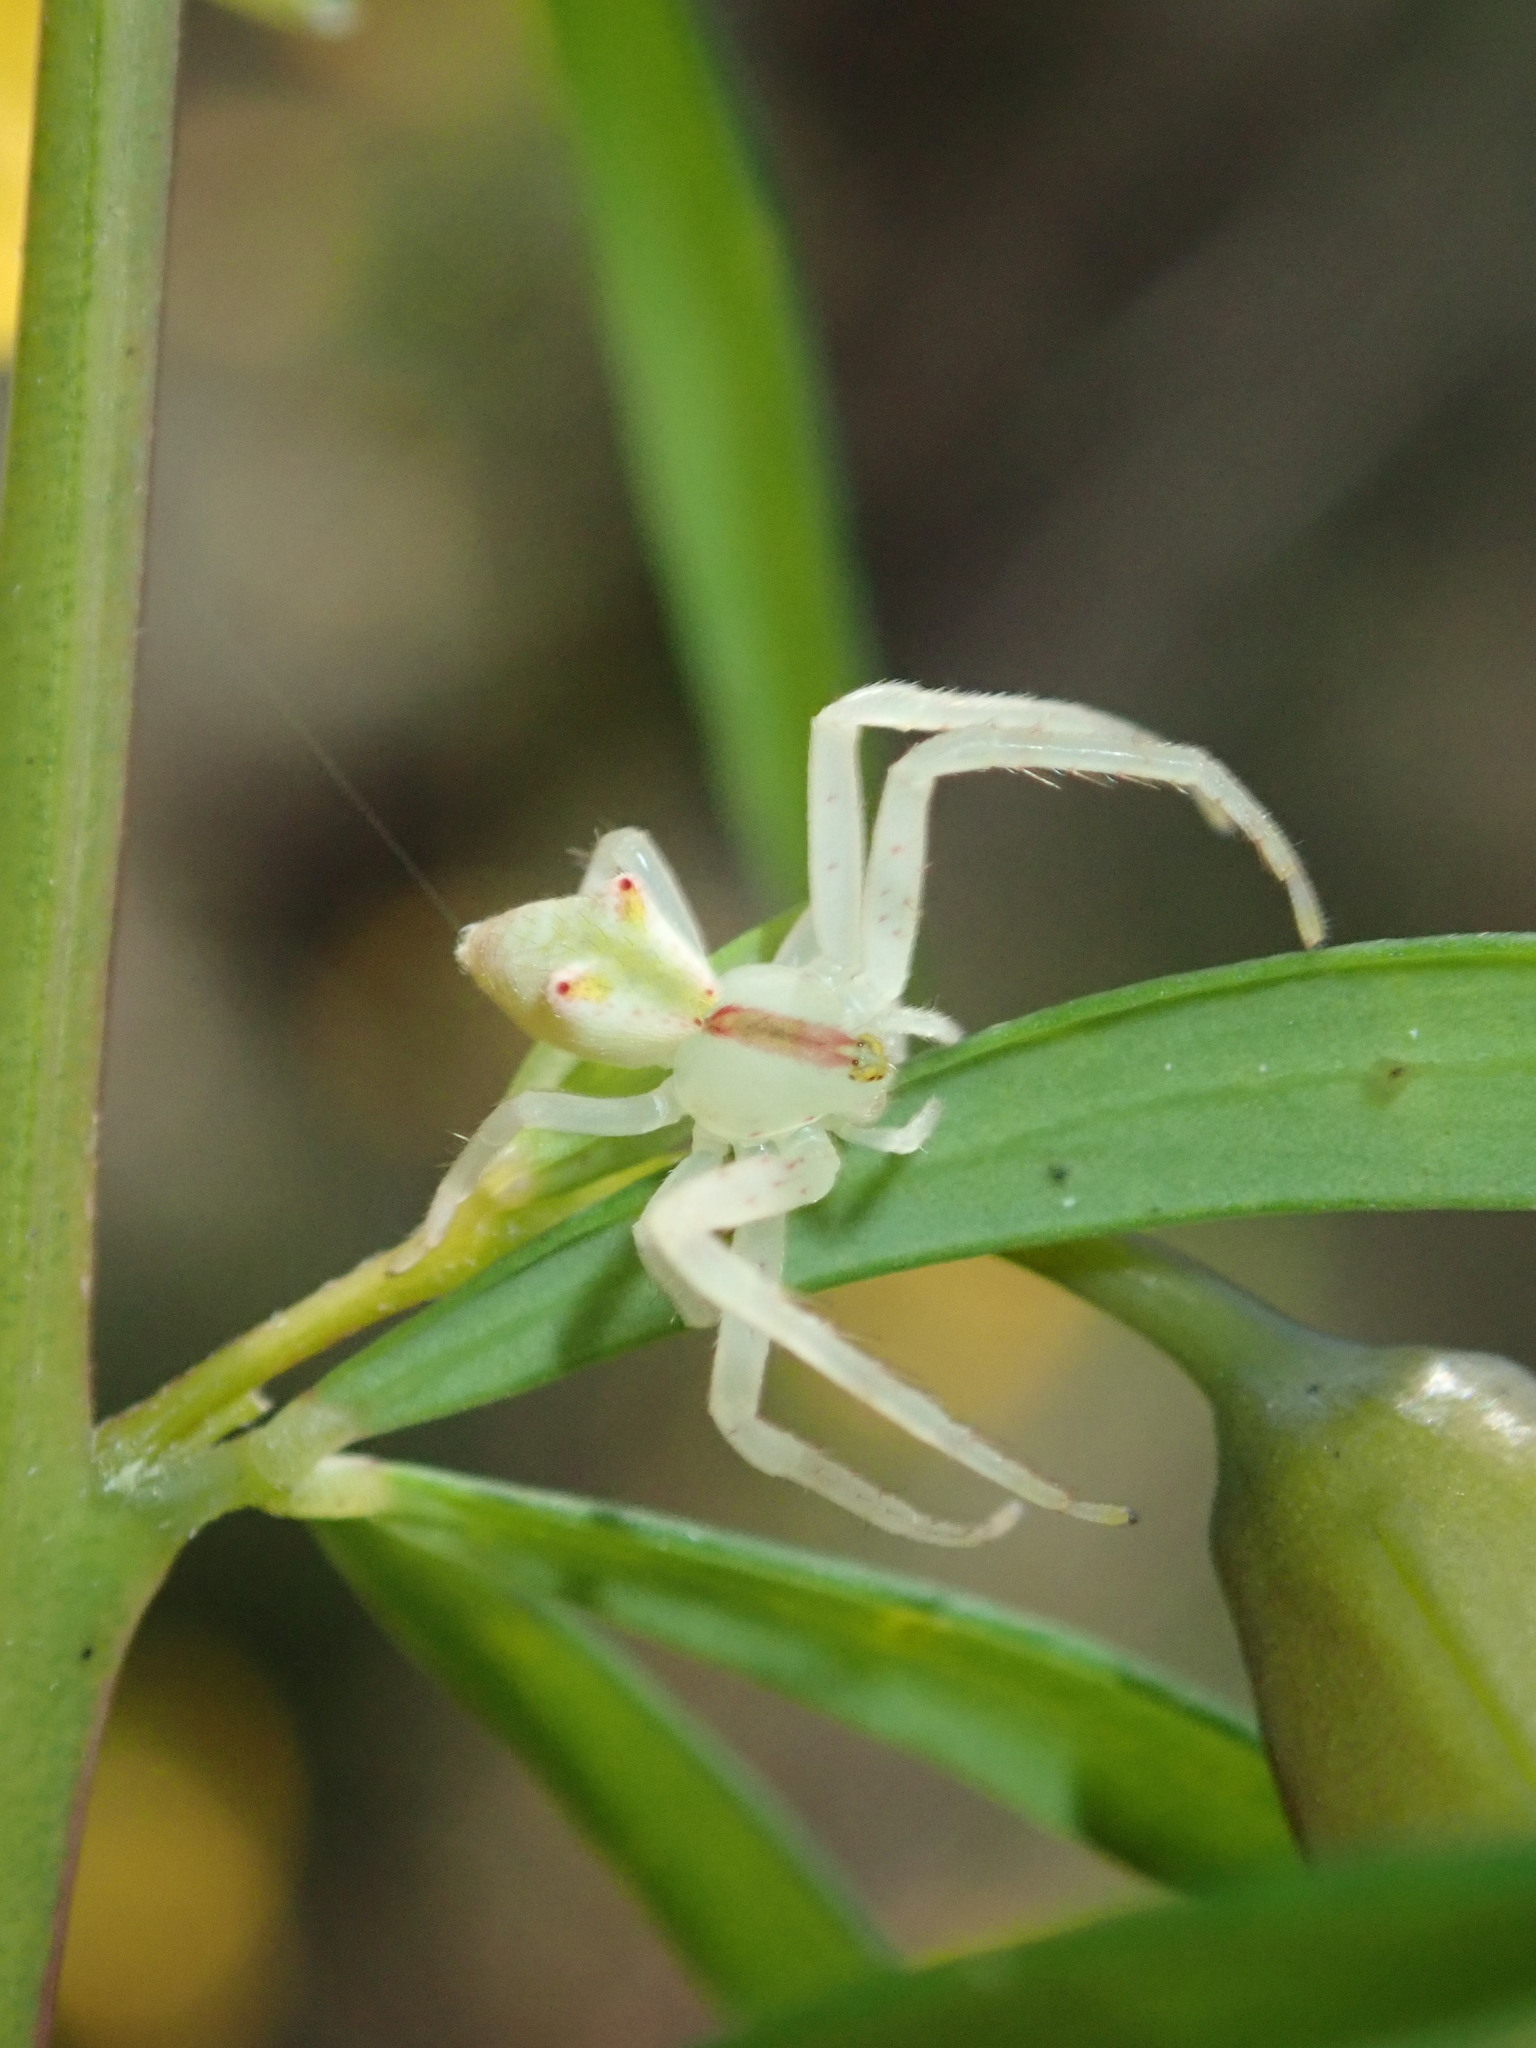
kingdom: Animalia
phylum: Arthropoda
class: Arachnida
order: Araneae
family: Thomisidae
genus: Sidymella
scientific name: Sidymella rubrosignata
